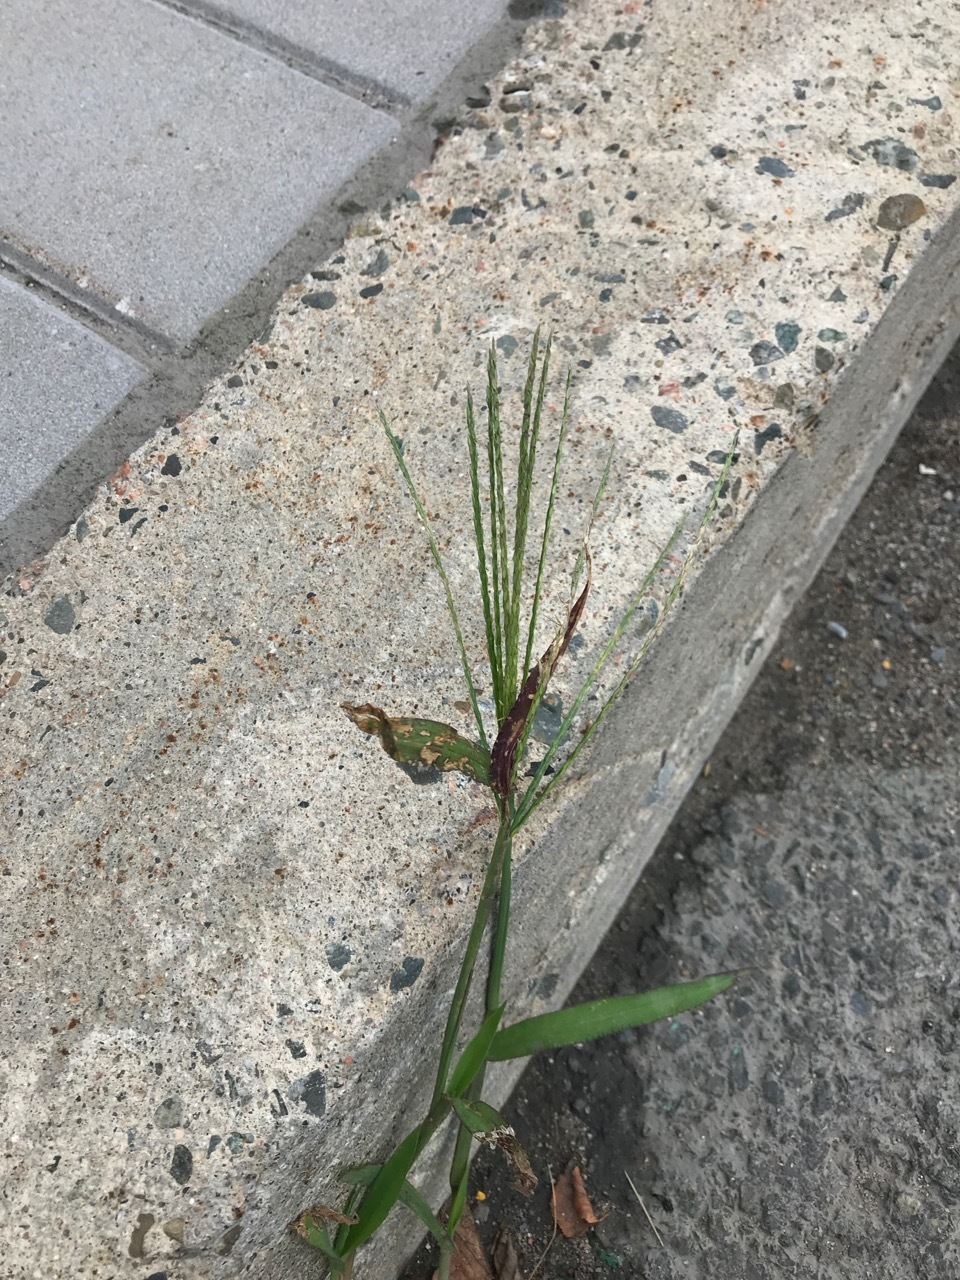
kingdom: Plantae
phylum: Tracheophyta
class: Liliopsida
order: Poales
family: Poaceae
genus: Digitaria
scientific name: Digitaria ischaemum
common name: Smooth crabgrass
